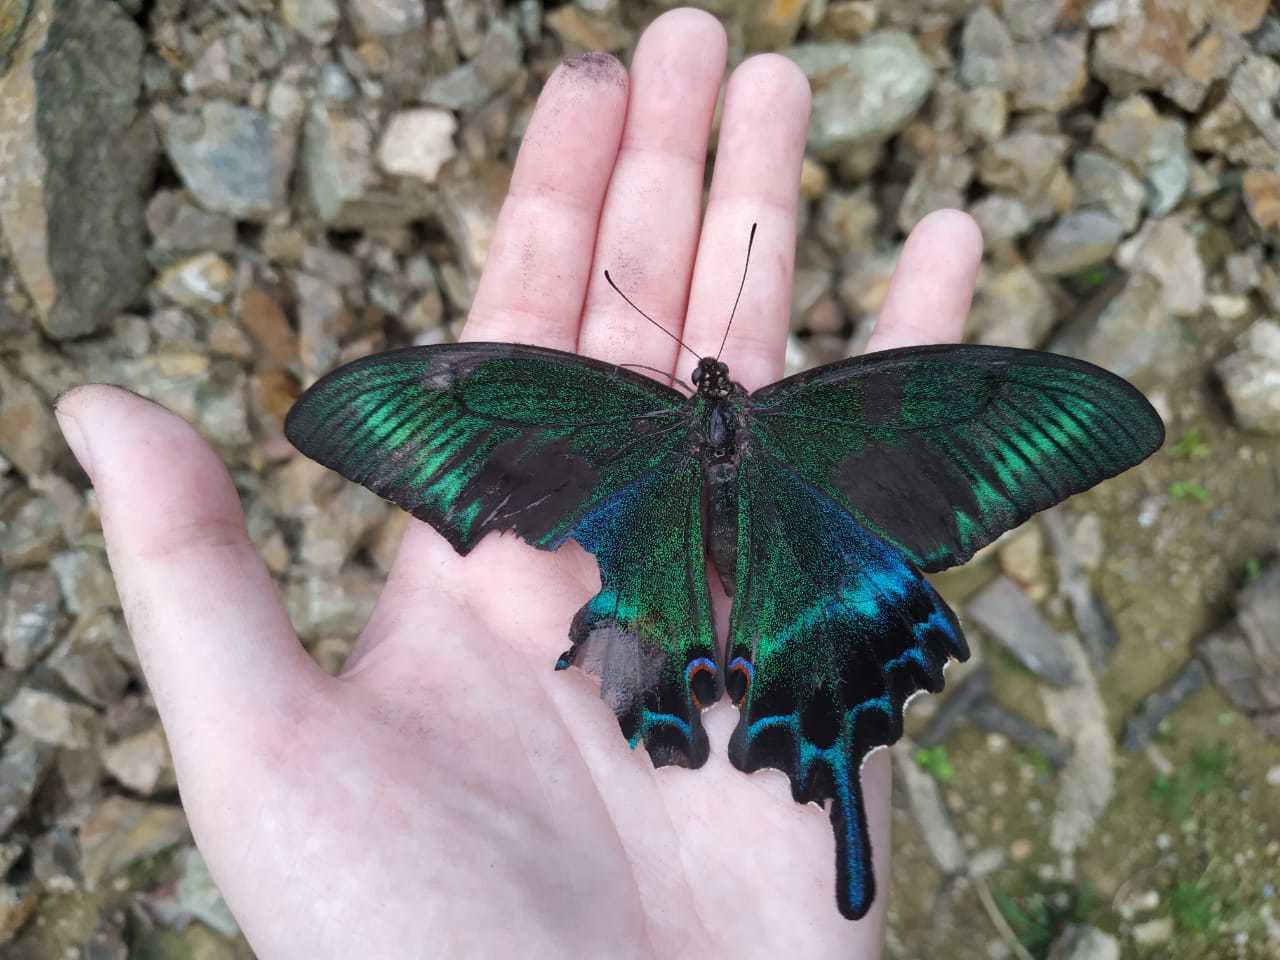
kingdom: Animalia
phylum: Arthropoda
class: Insecta
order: Lepidoptera
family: Papilionidae
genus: Papilio
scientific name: Papilio maackii
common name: Alpine black swallowtail
